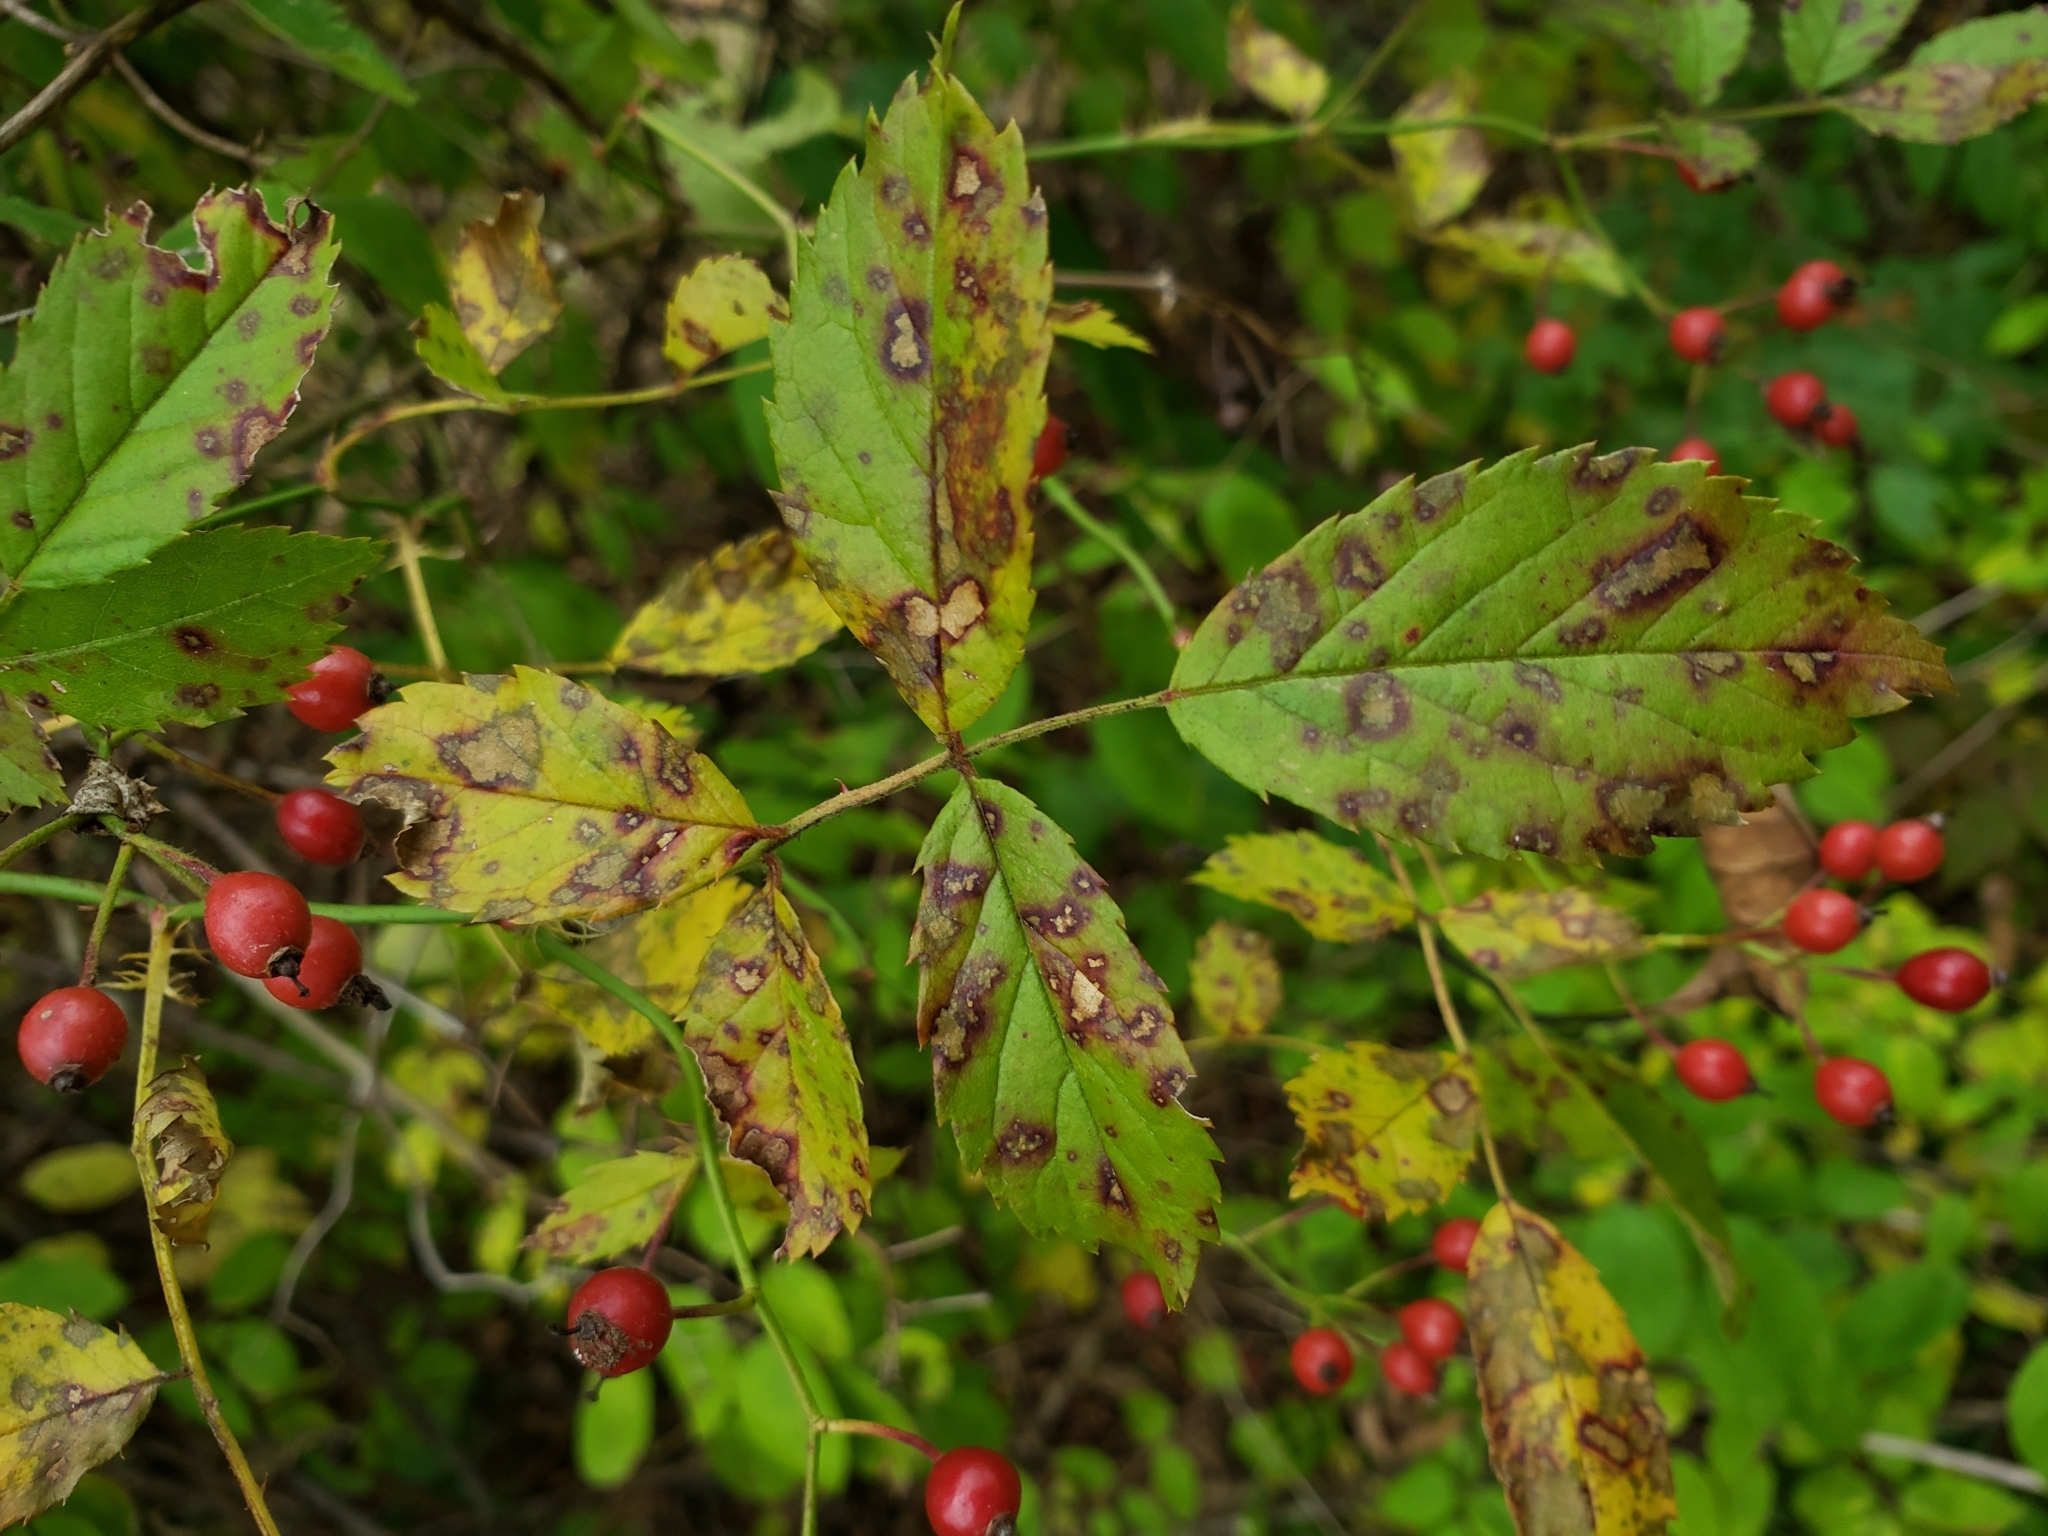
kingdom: Plantae
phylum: Tracheophyta
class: Magnoliopsida
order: Rosales
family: Rosaceae
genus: Rosa
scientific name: Rosa multiflora
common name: Multiflora rose
